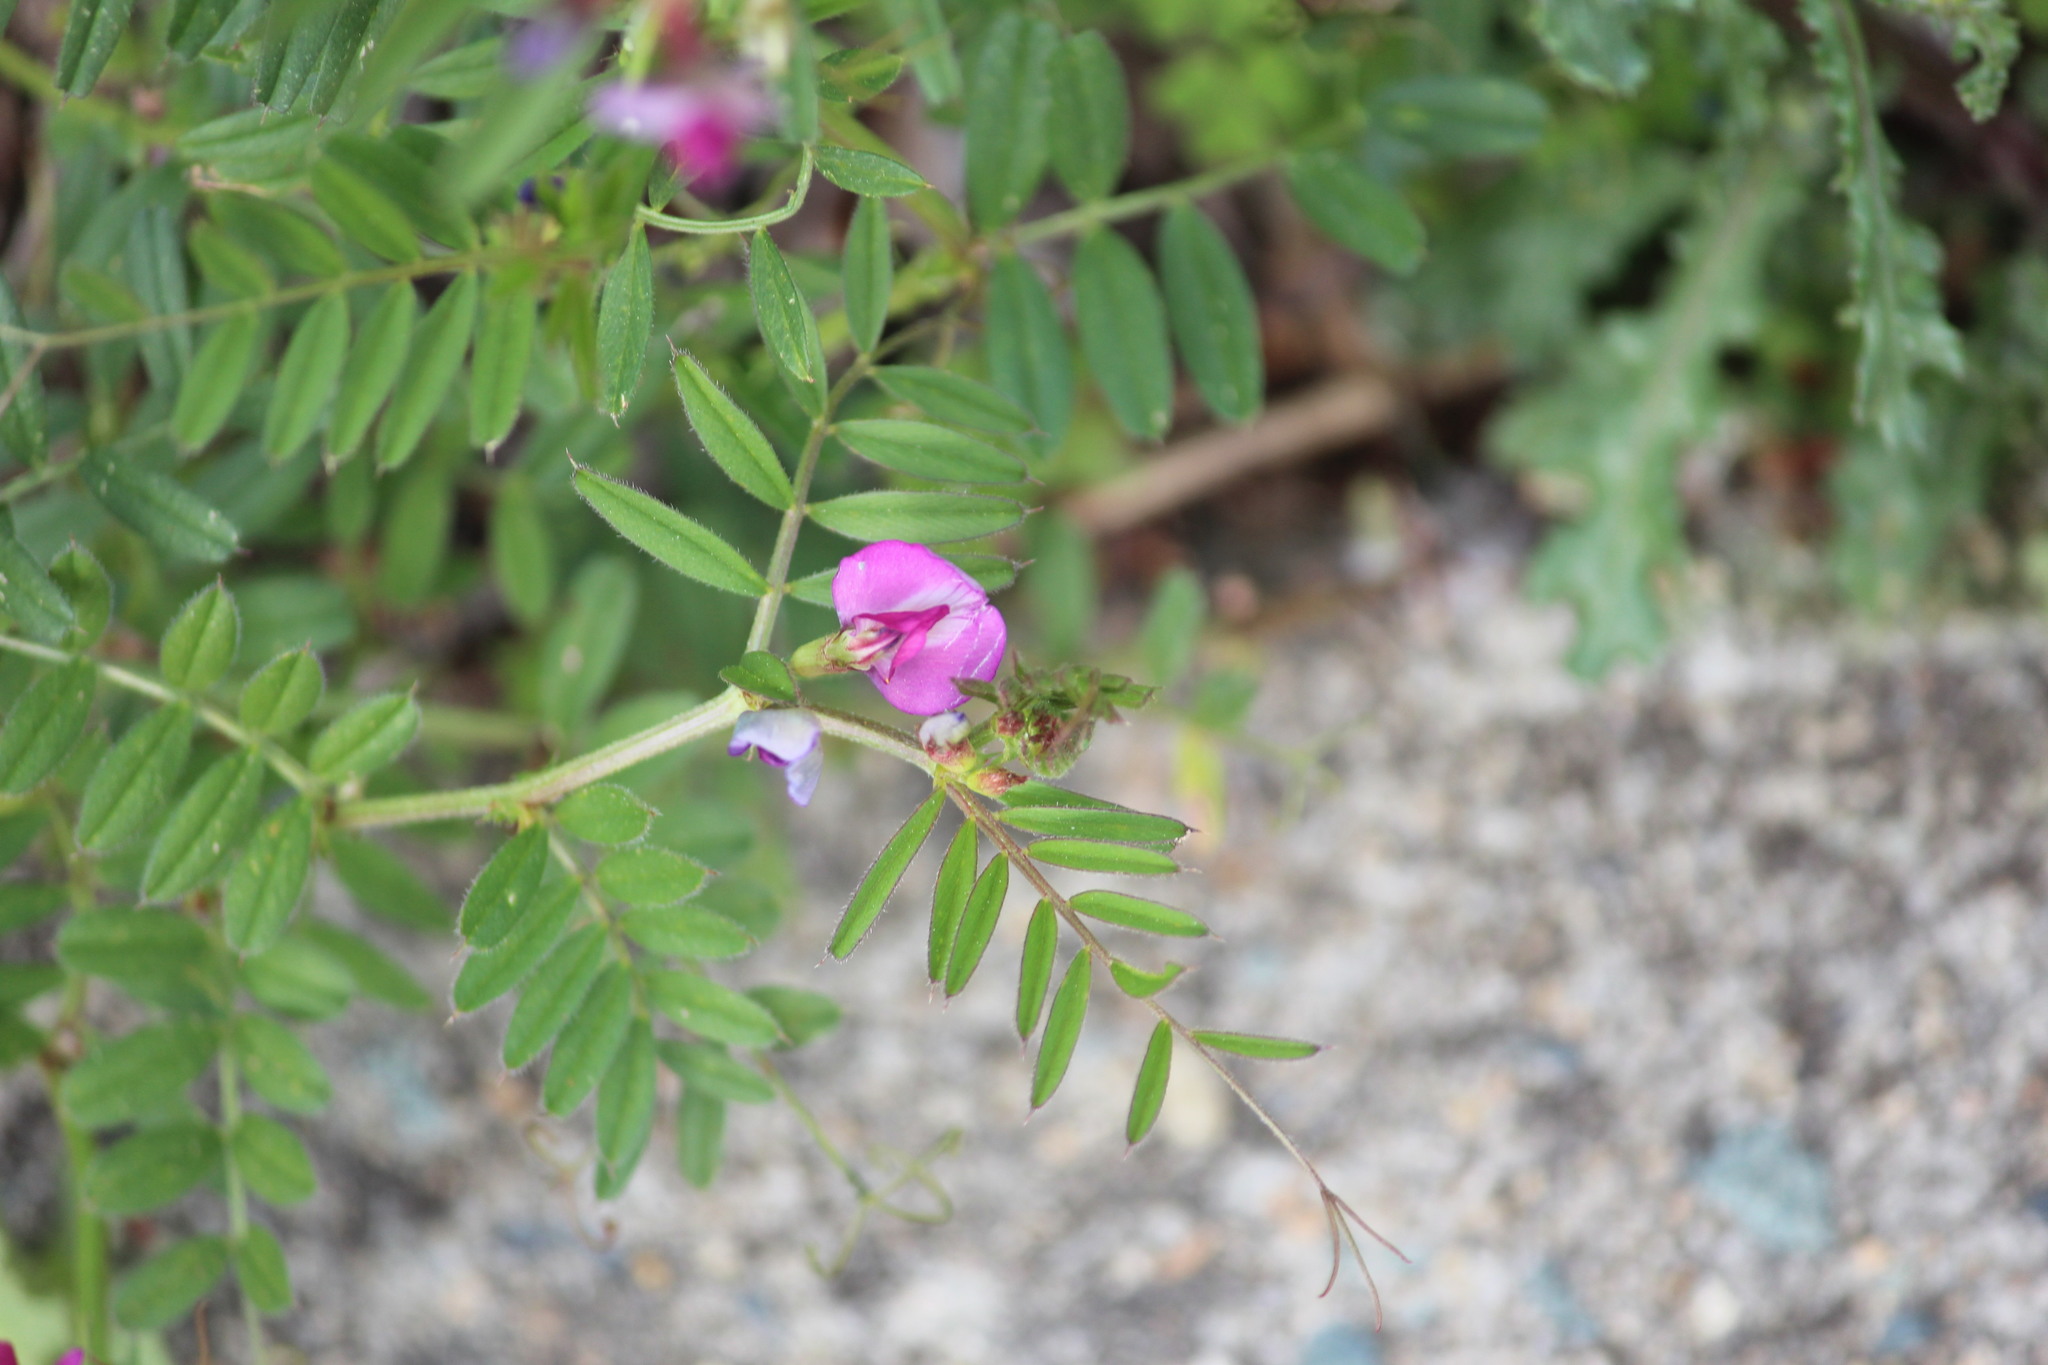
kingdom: Plantae
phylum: Tracheophyta
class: Magnoliopsida
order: Fabales
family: Fabaceae
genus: Vicia
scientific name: Vicia sativa
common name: Garden vetch
